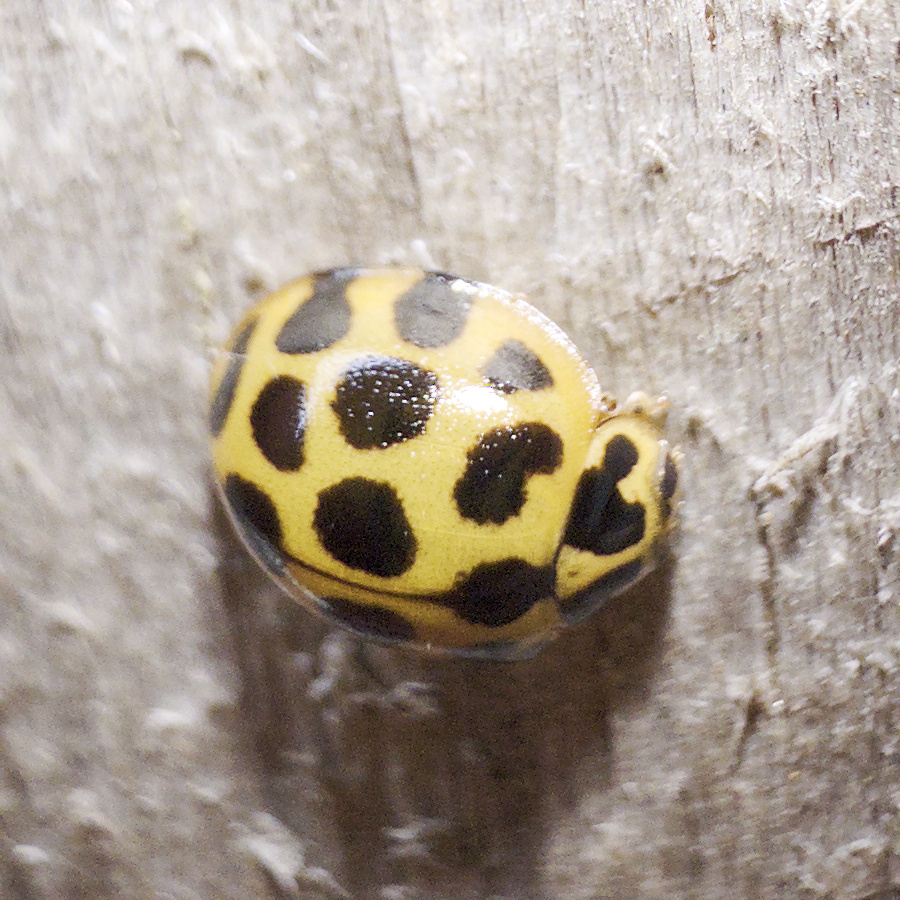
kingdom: Animalia
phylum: Arthropoda
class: Insecta
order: Coleoptera
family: Coccinellidae
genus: Harmonia
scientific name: Harmonia conformis
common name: Common spotted ladybird beetle
